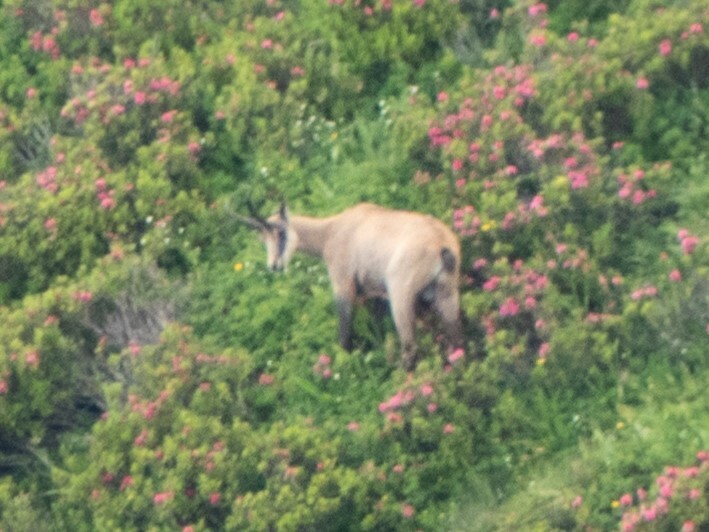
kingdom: Animalia
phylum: Chordata
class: Mammalia
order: Artiodactyla
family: Bovidae
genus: Rupicapra
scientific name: Rupicapra rupicapra
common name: Chamois
